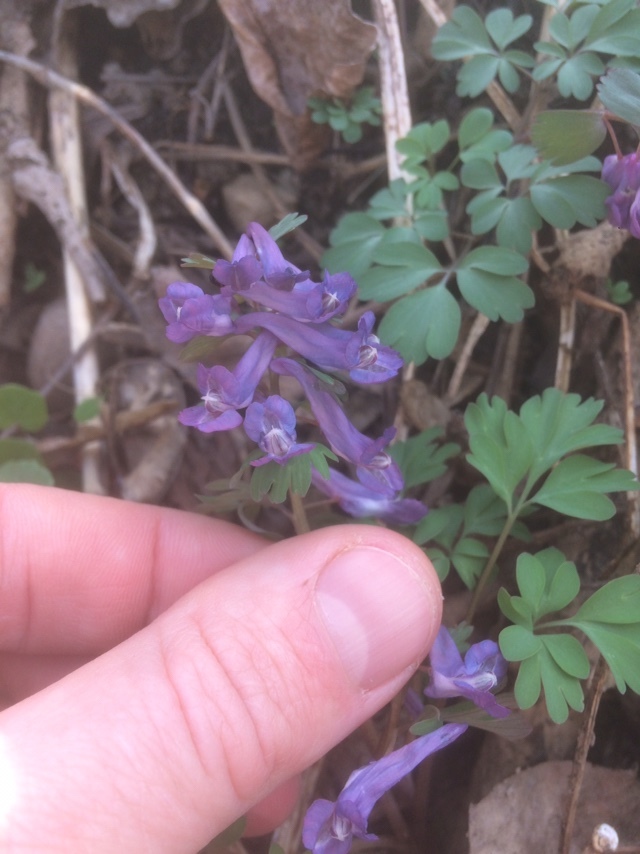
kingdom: Plantae
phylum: Tracheophyta
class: Magnoliopsida
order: Ranunculales
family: Papaveraceae
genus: Corydalis
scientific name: Corydalis solida
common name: Bird-in-a-bush
